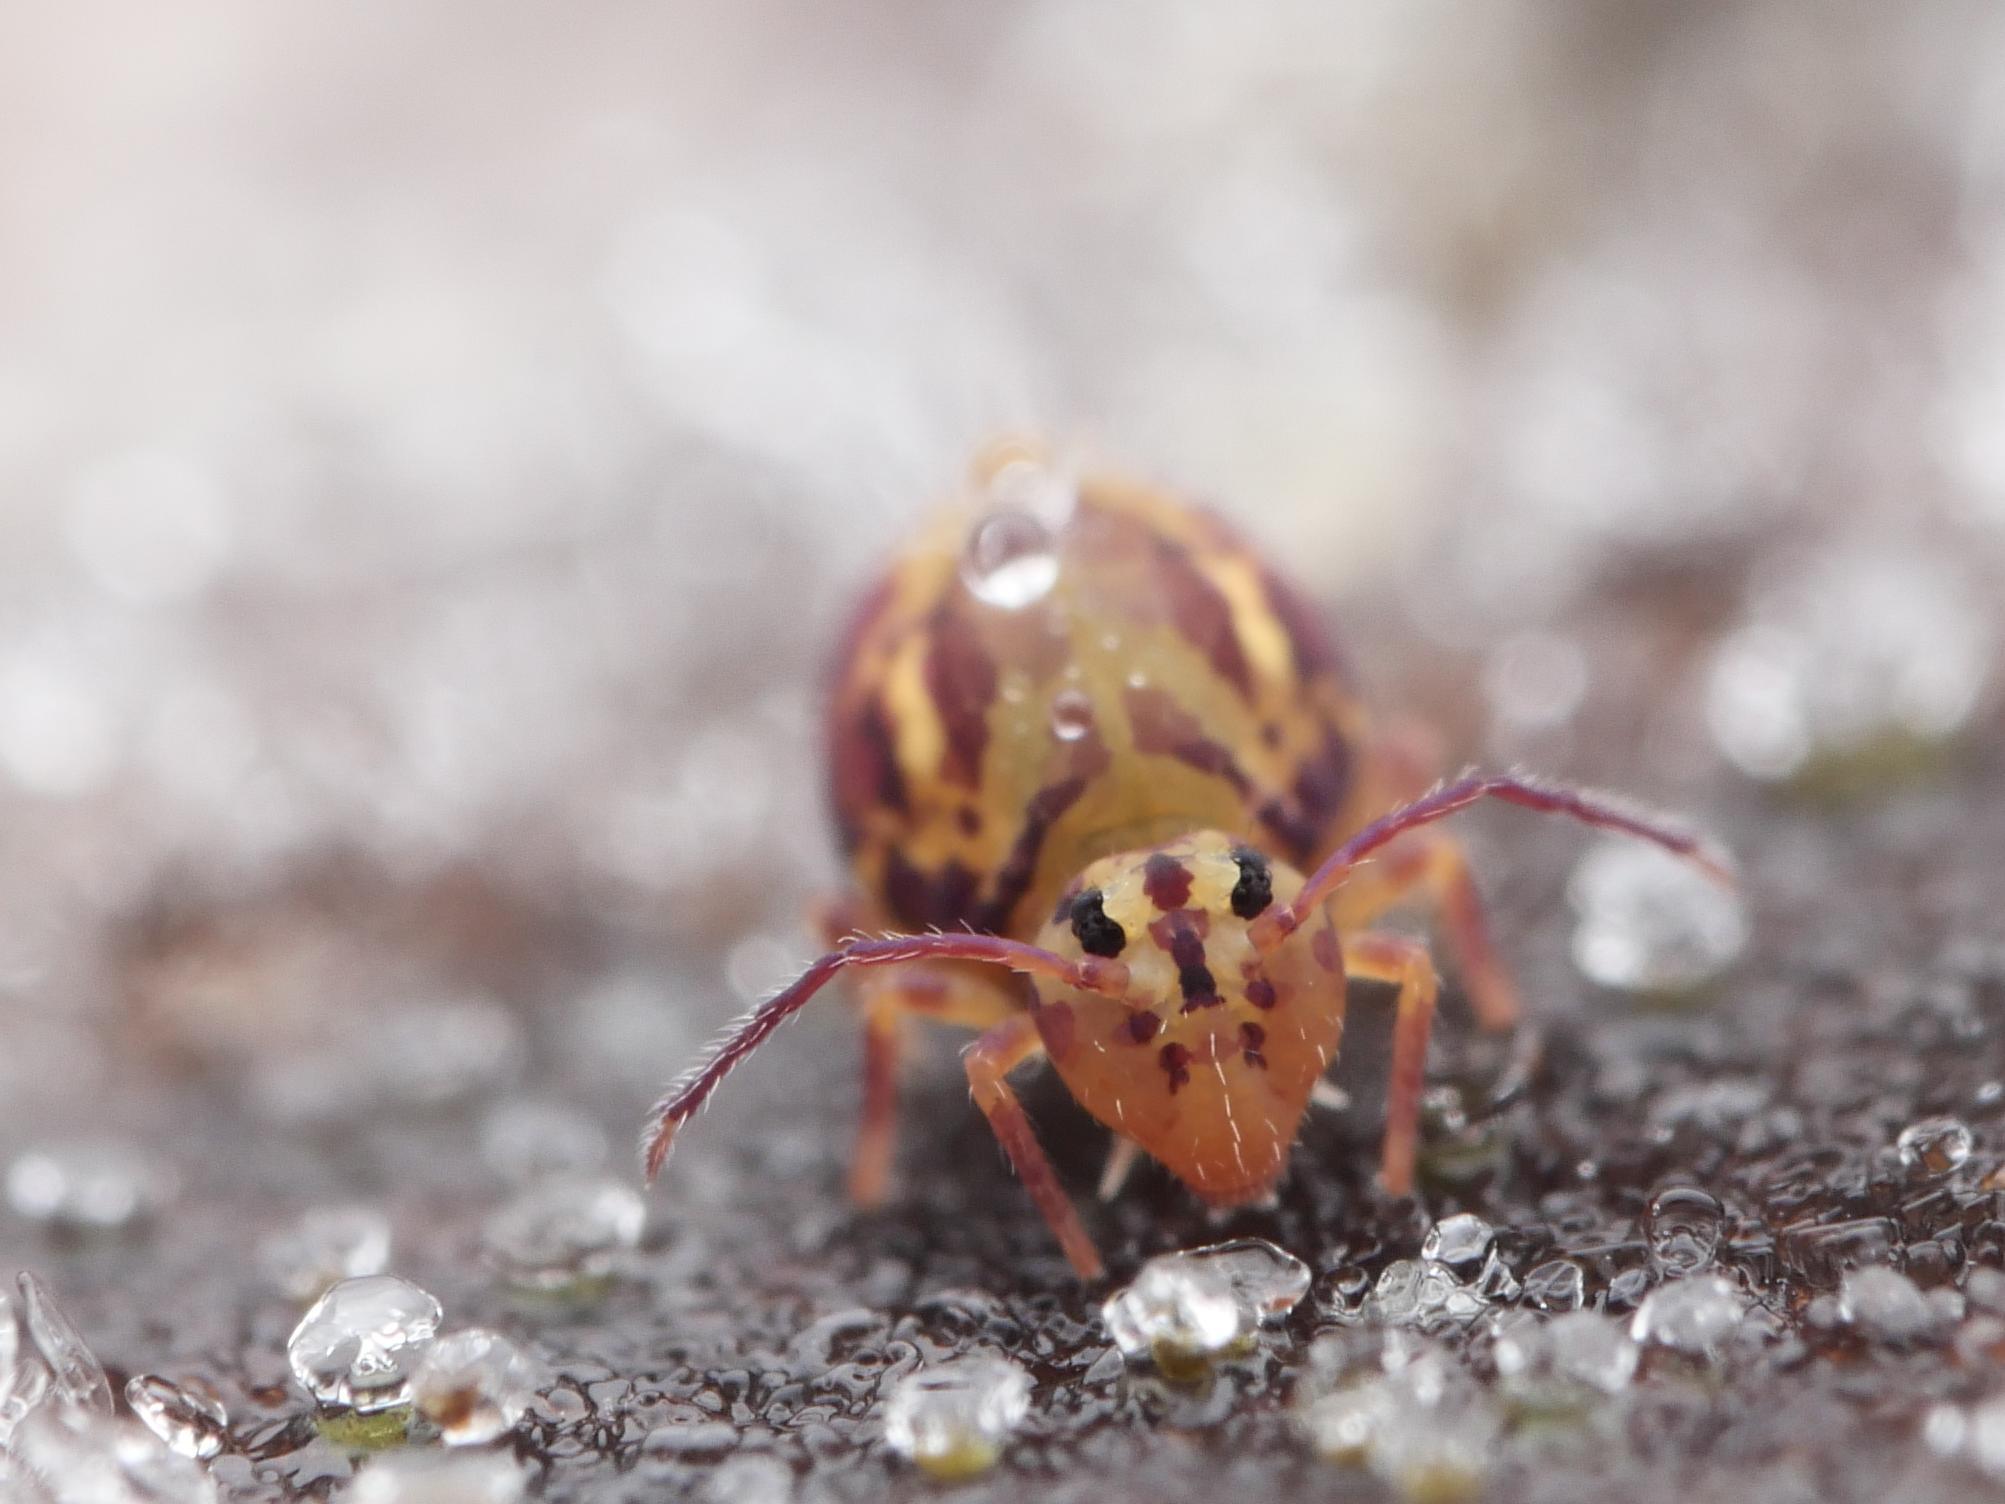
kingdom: Animalia
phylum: Arthropoda
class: Collembola
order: Symphypleona
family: Dicyrtomidae
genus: Dicyrtomina
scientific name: Dicyrtomina ornata
